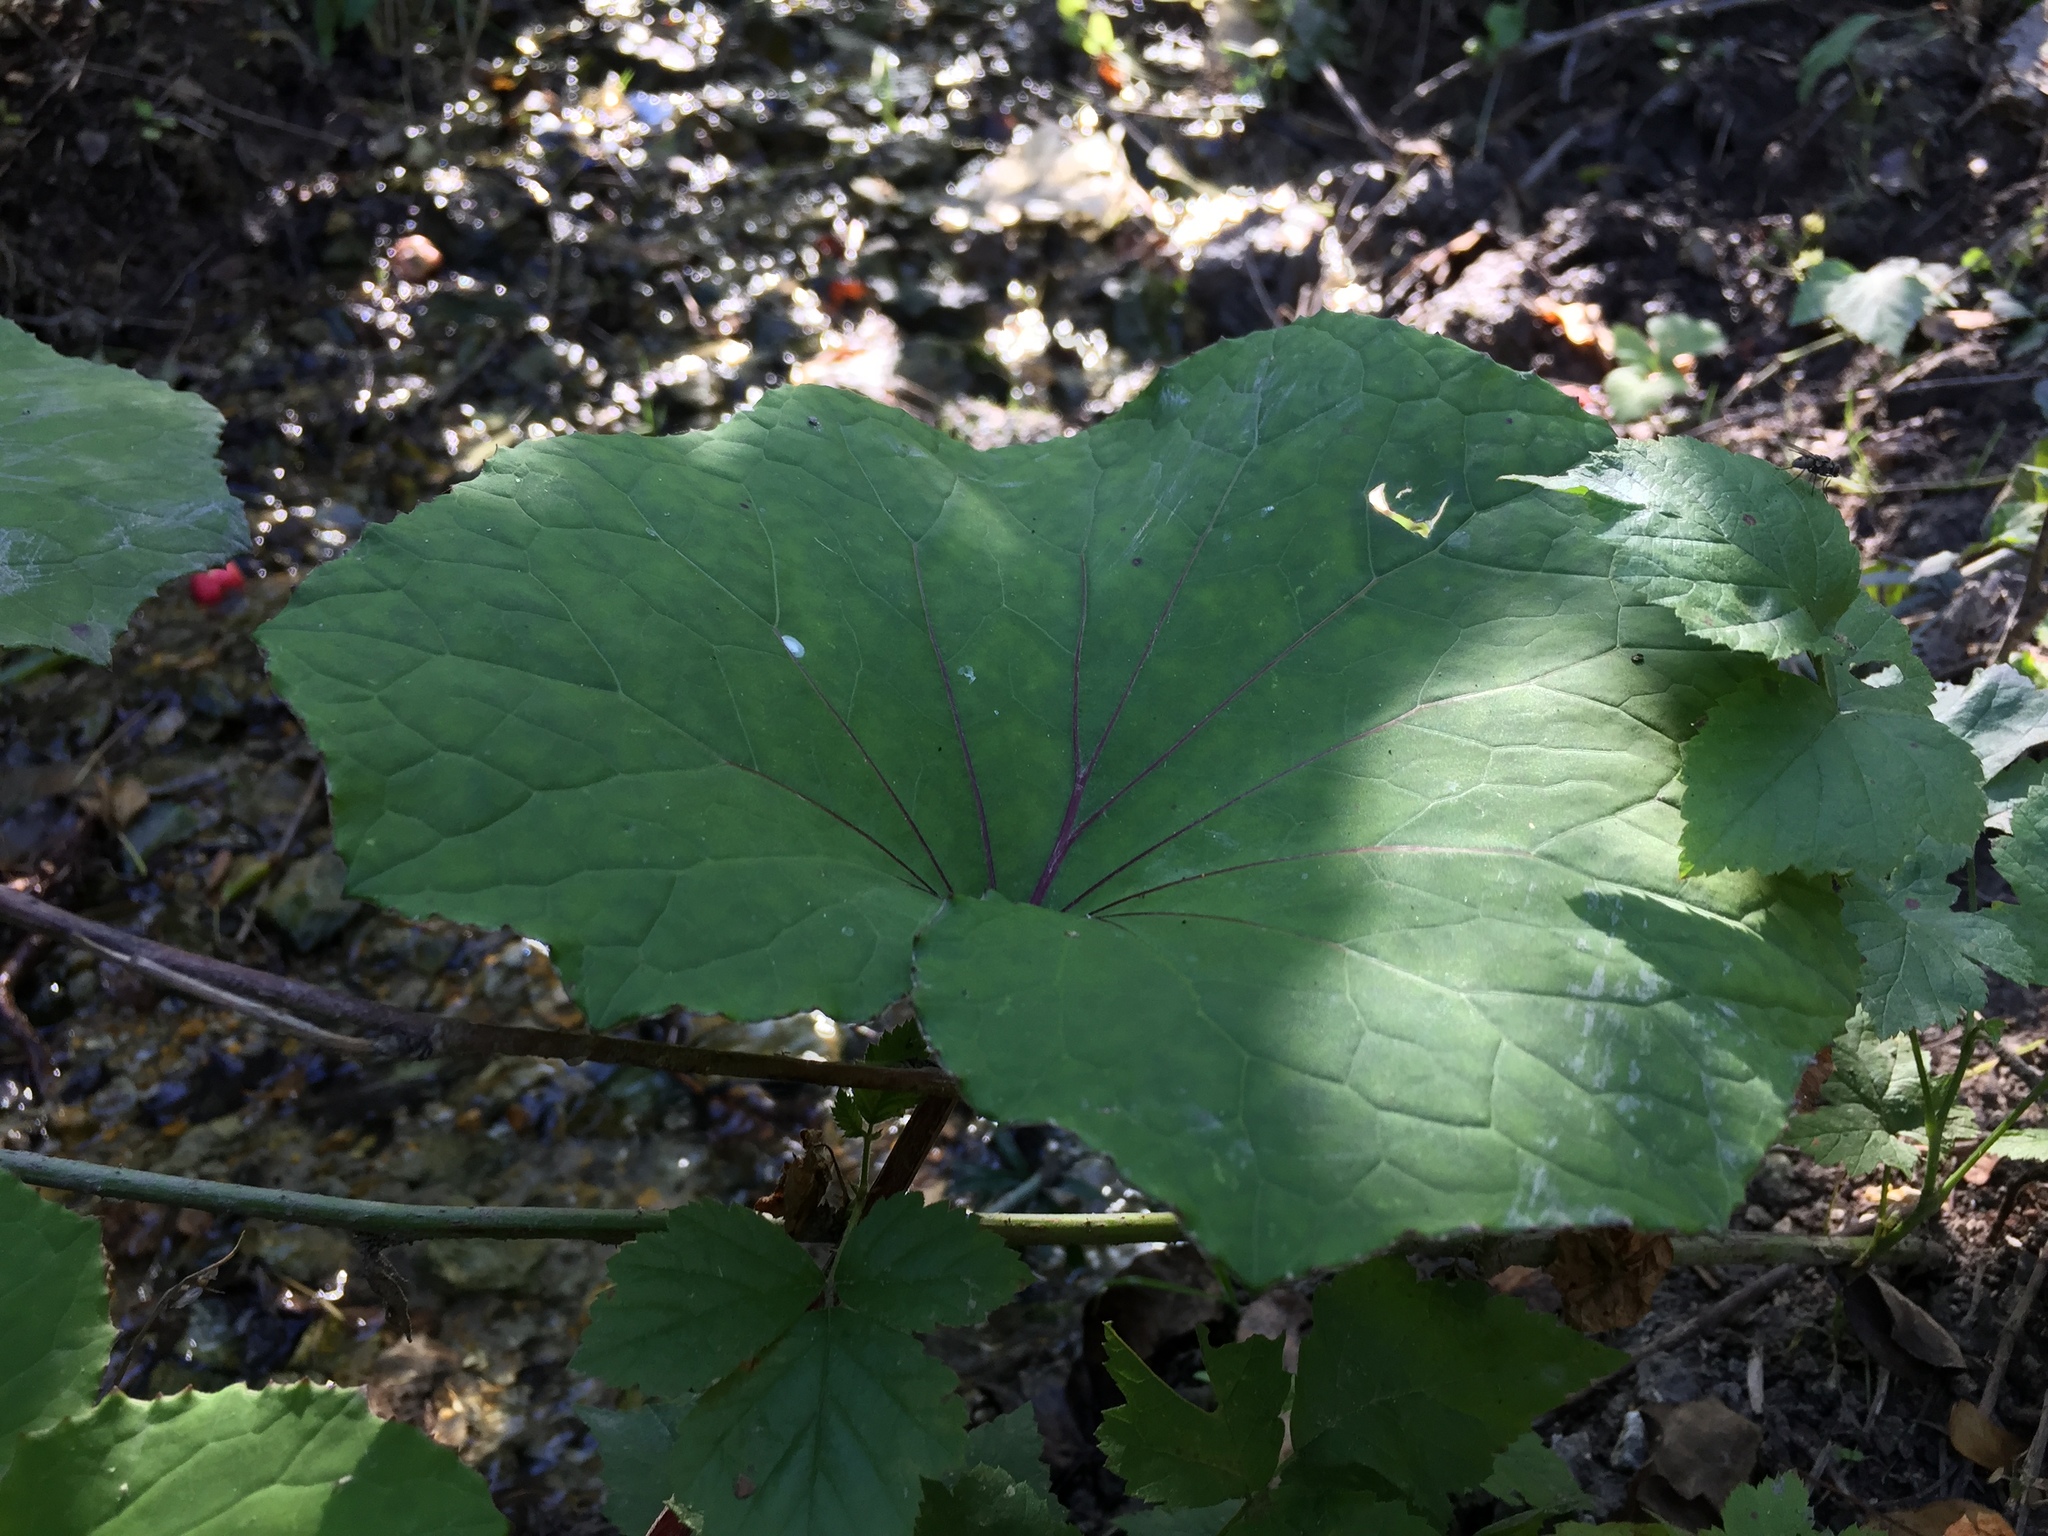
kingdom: Plantae
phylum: Tracheophyta
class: Magnoliopsida
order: Asterales
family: Asteraceae
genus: Tussilago
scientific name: Tussilago farfara
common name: Coltsfoot
